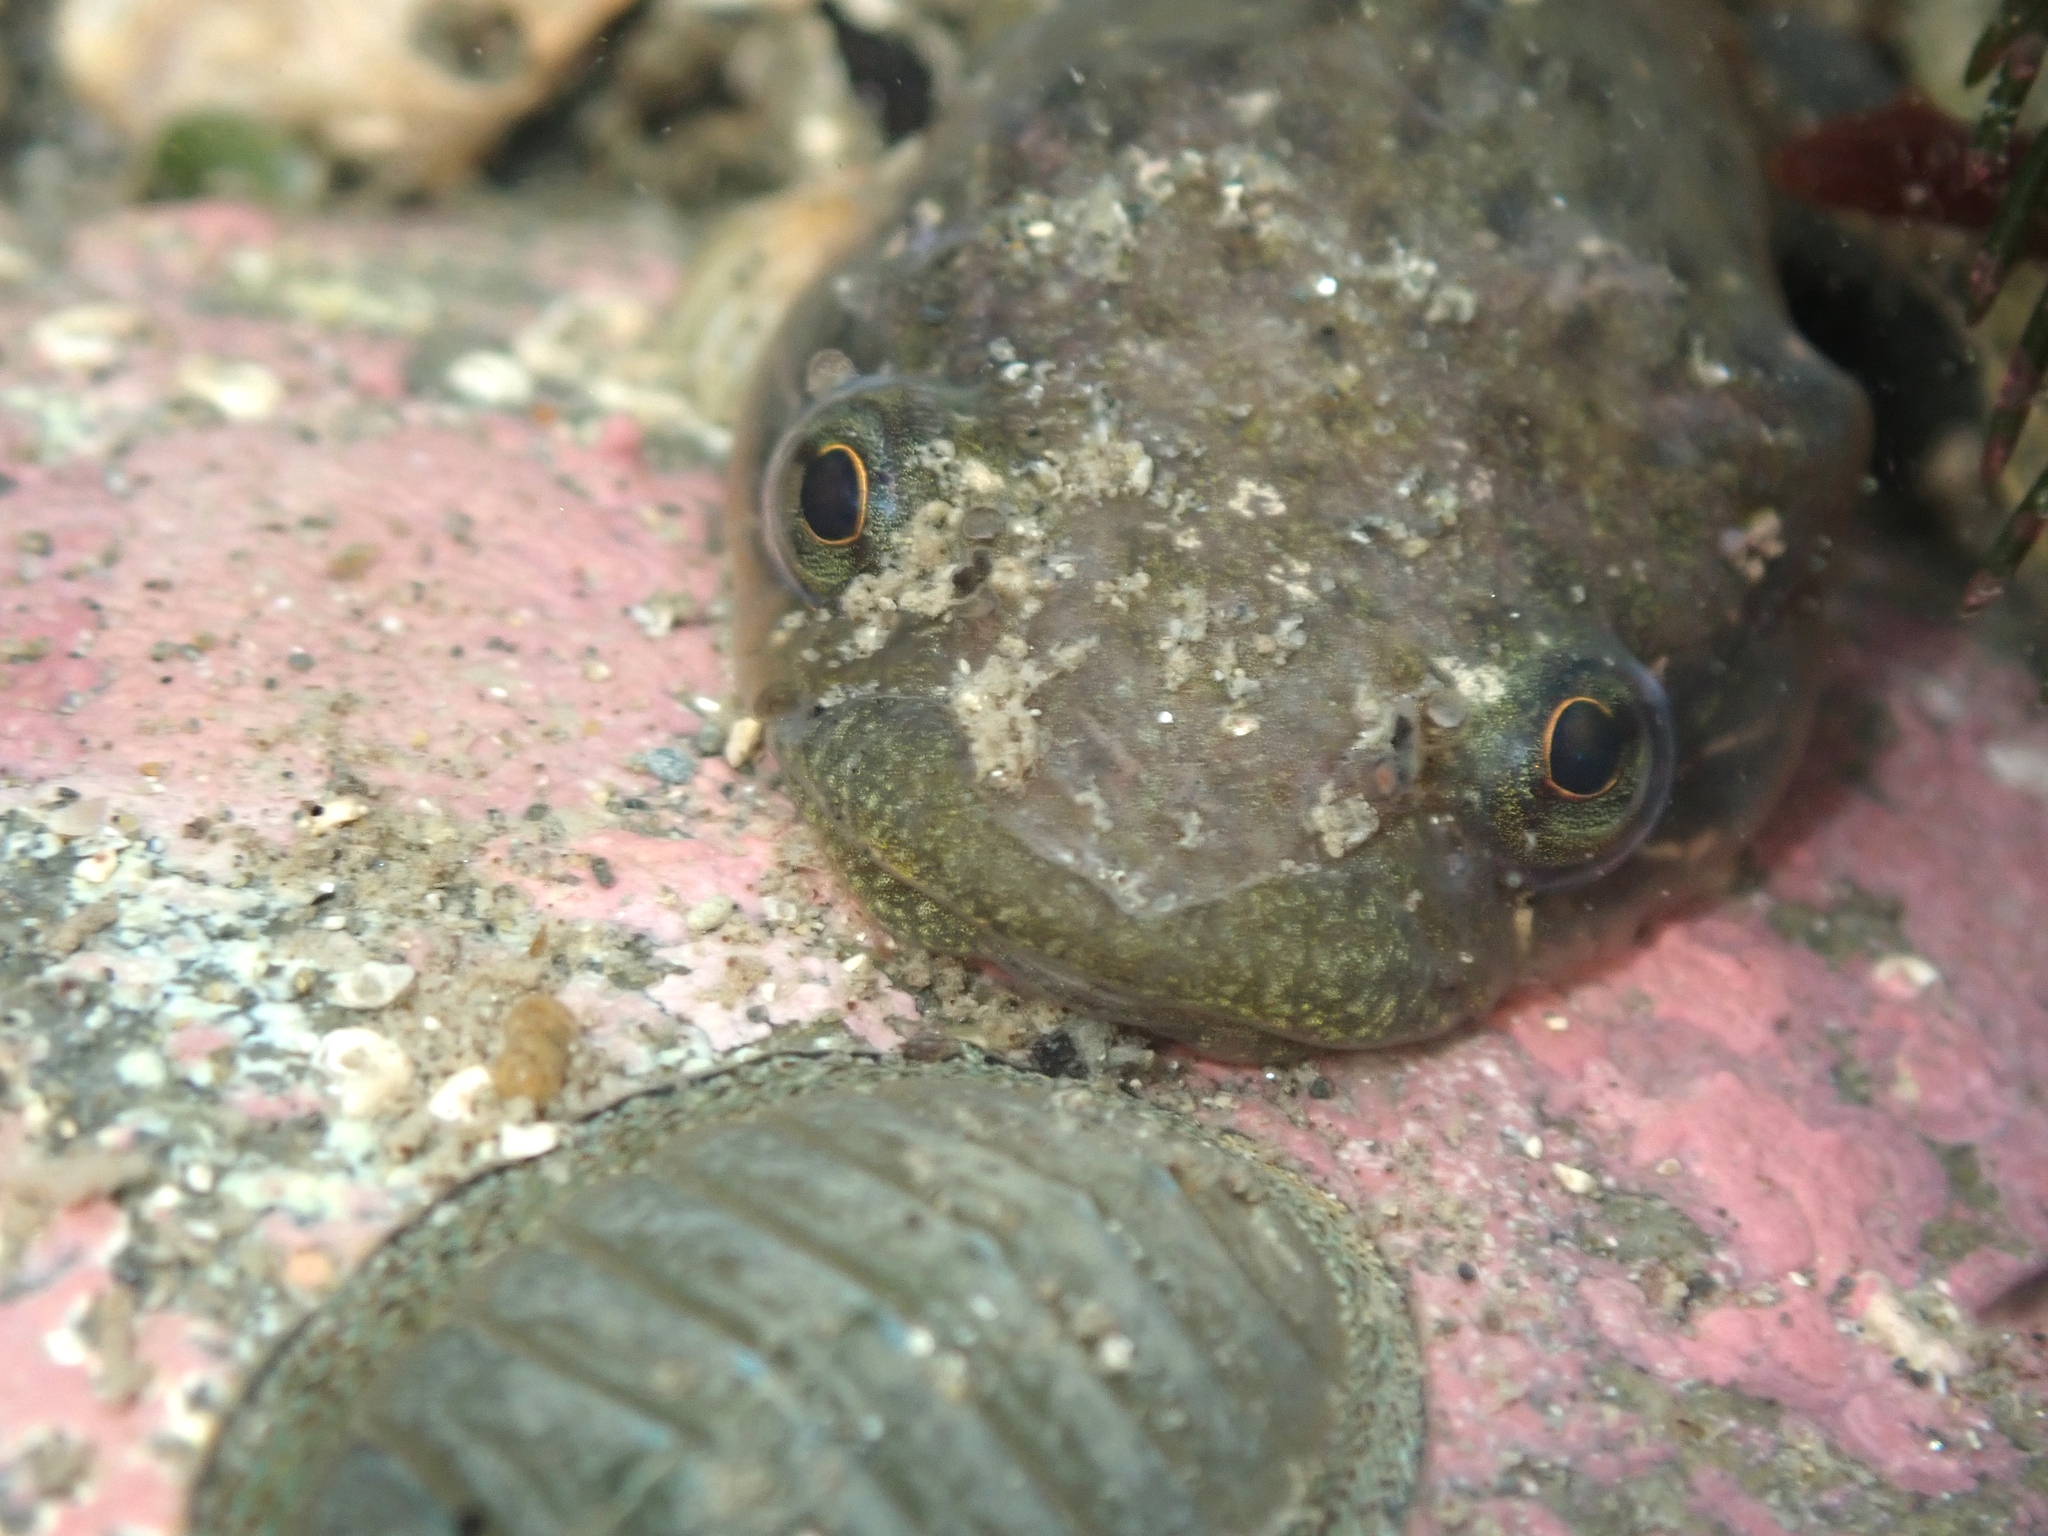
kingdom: Animalia
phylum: Chordata
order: Gobiesociformes
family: Gobiesocidae
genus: Trachelochismus
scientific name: Trachelochismus pinnulatus
